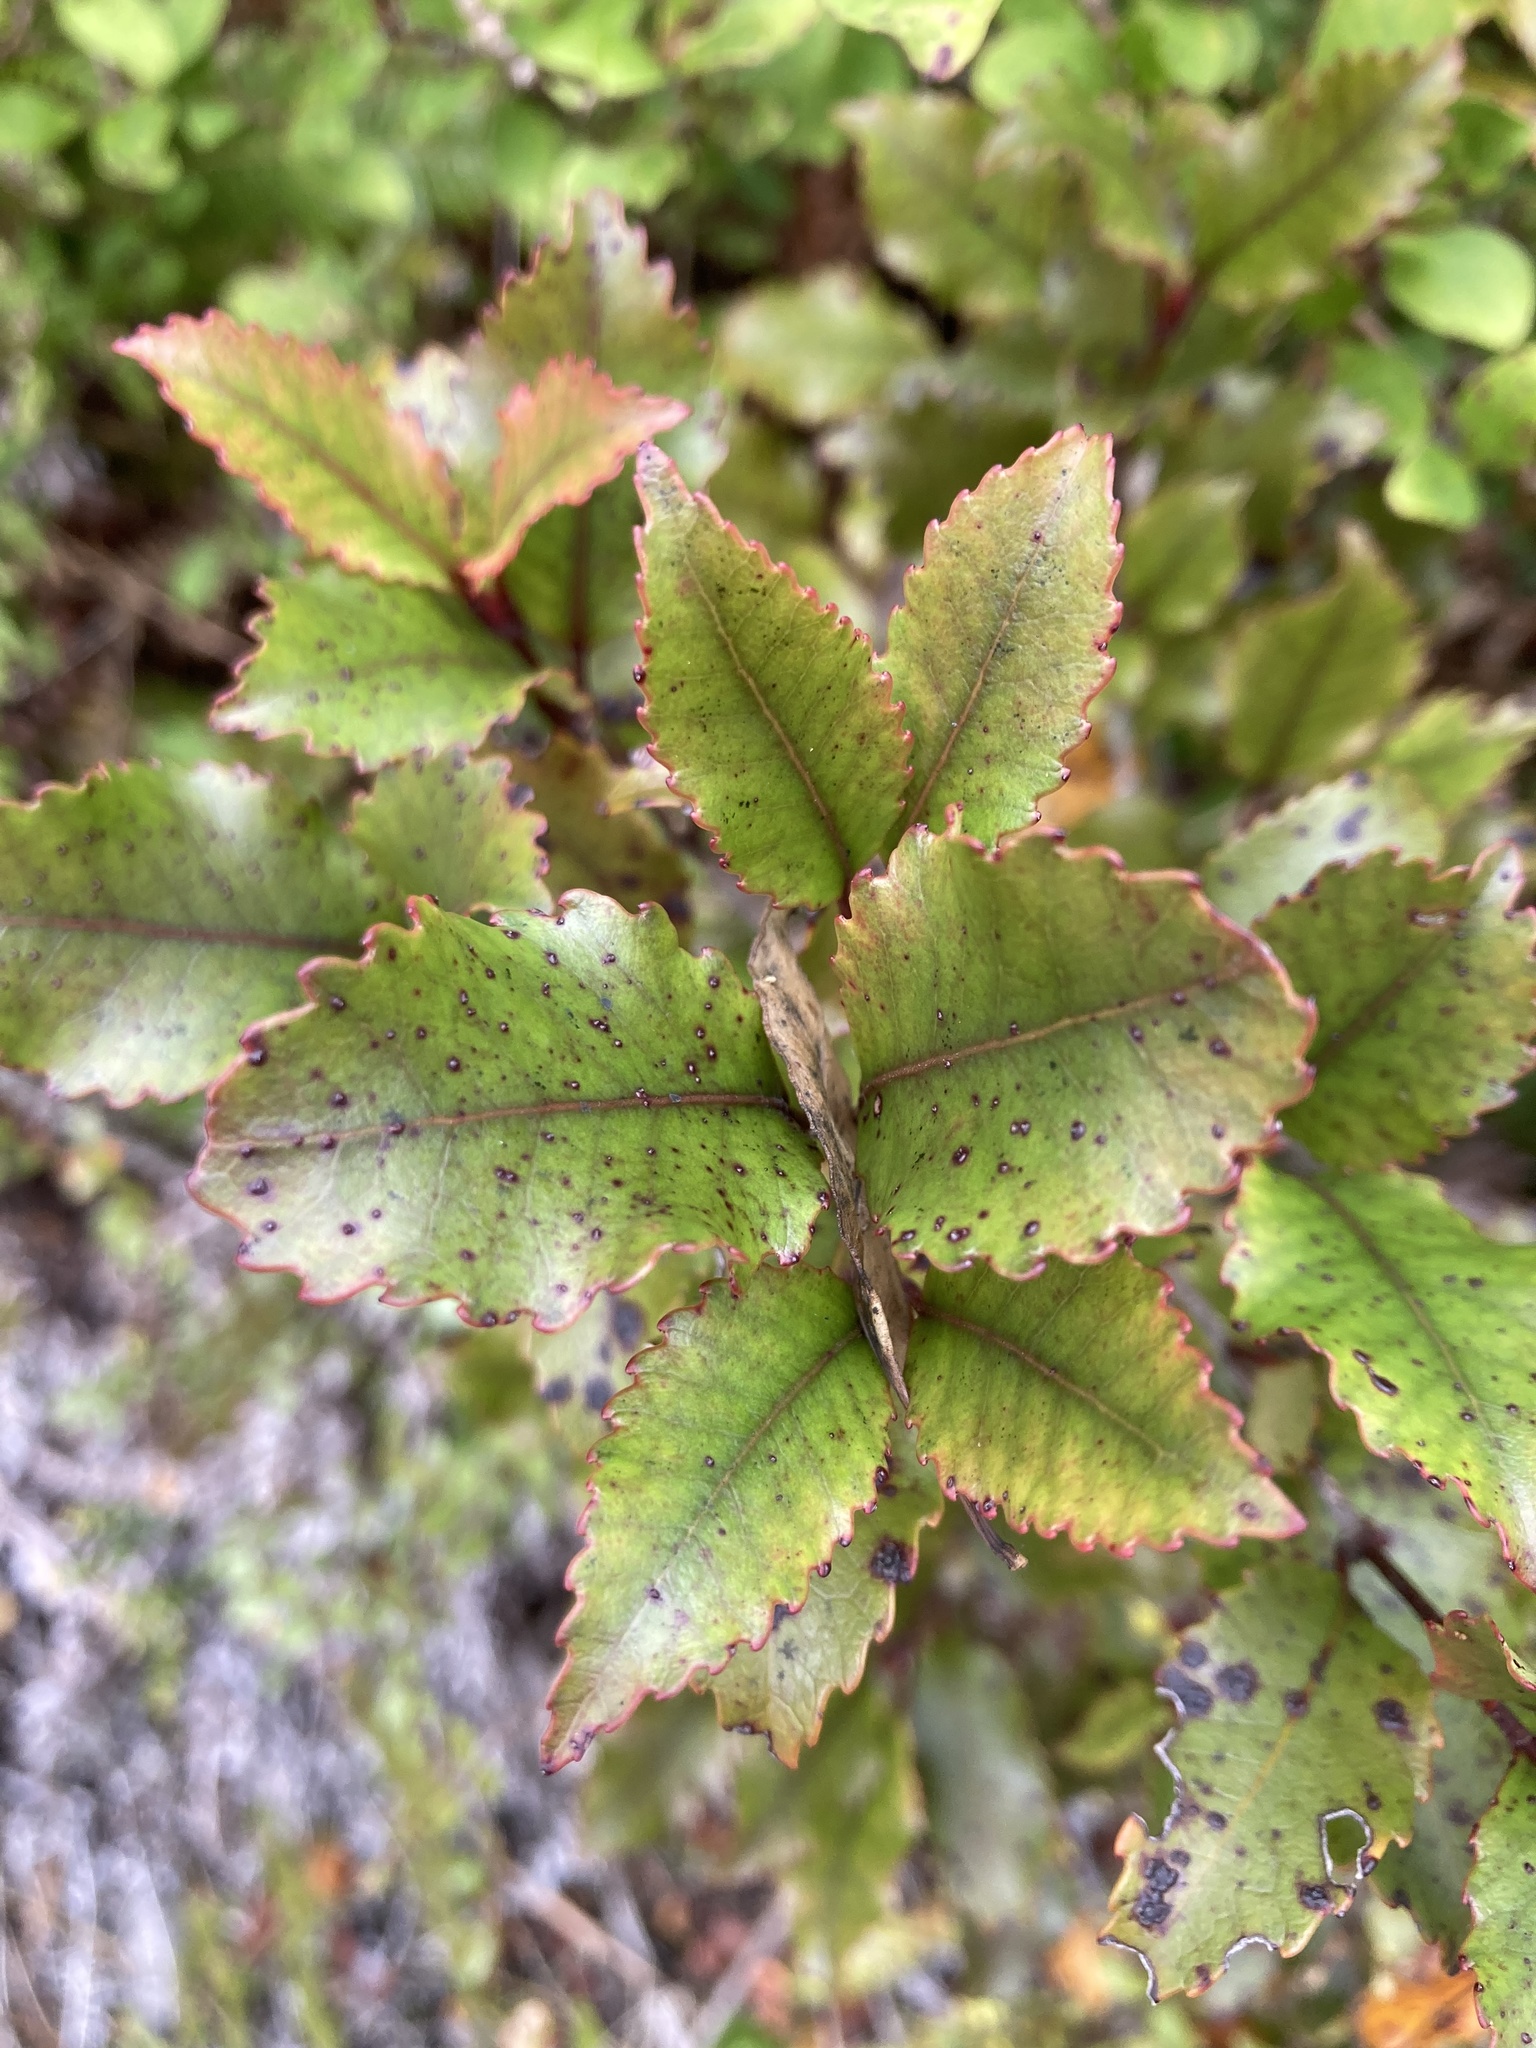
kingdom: Plantae
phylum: Tracheophyta
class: Magnoliopsida
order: Oxalidales
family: Cunoniaceae
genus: Pterophylla
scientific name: Pterophylla racemosa
